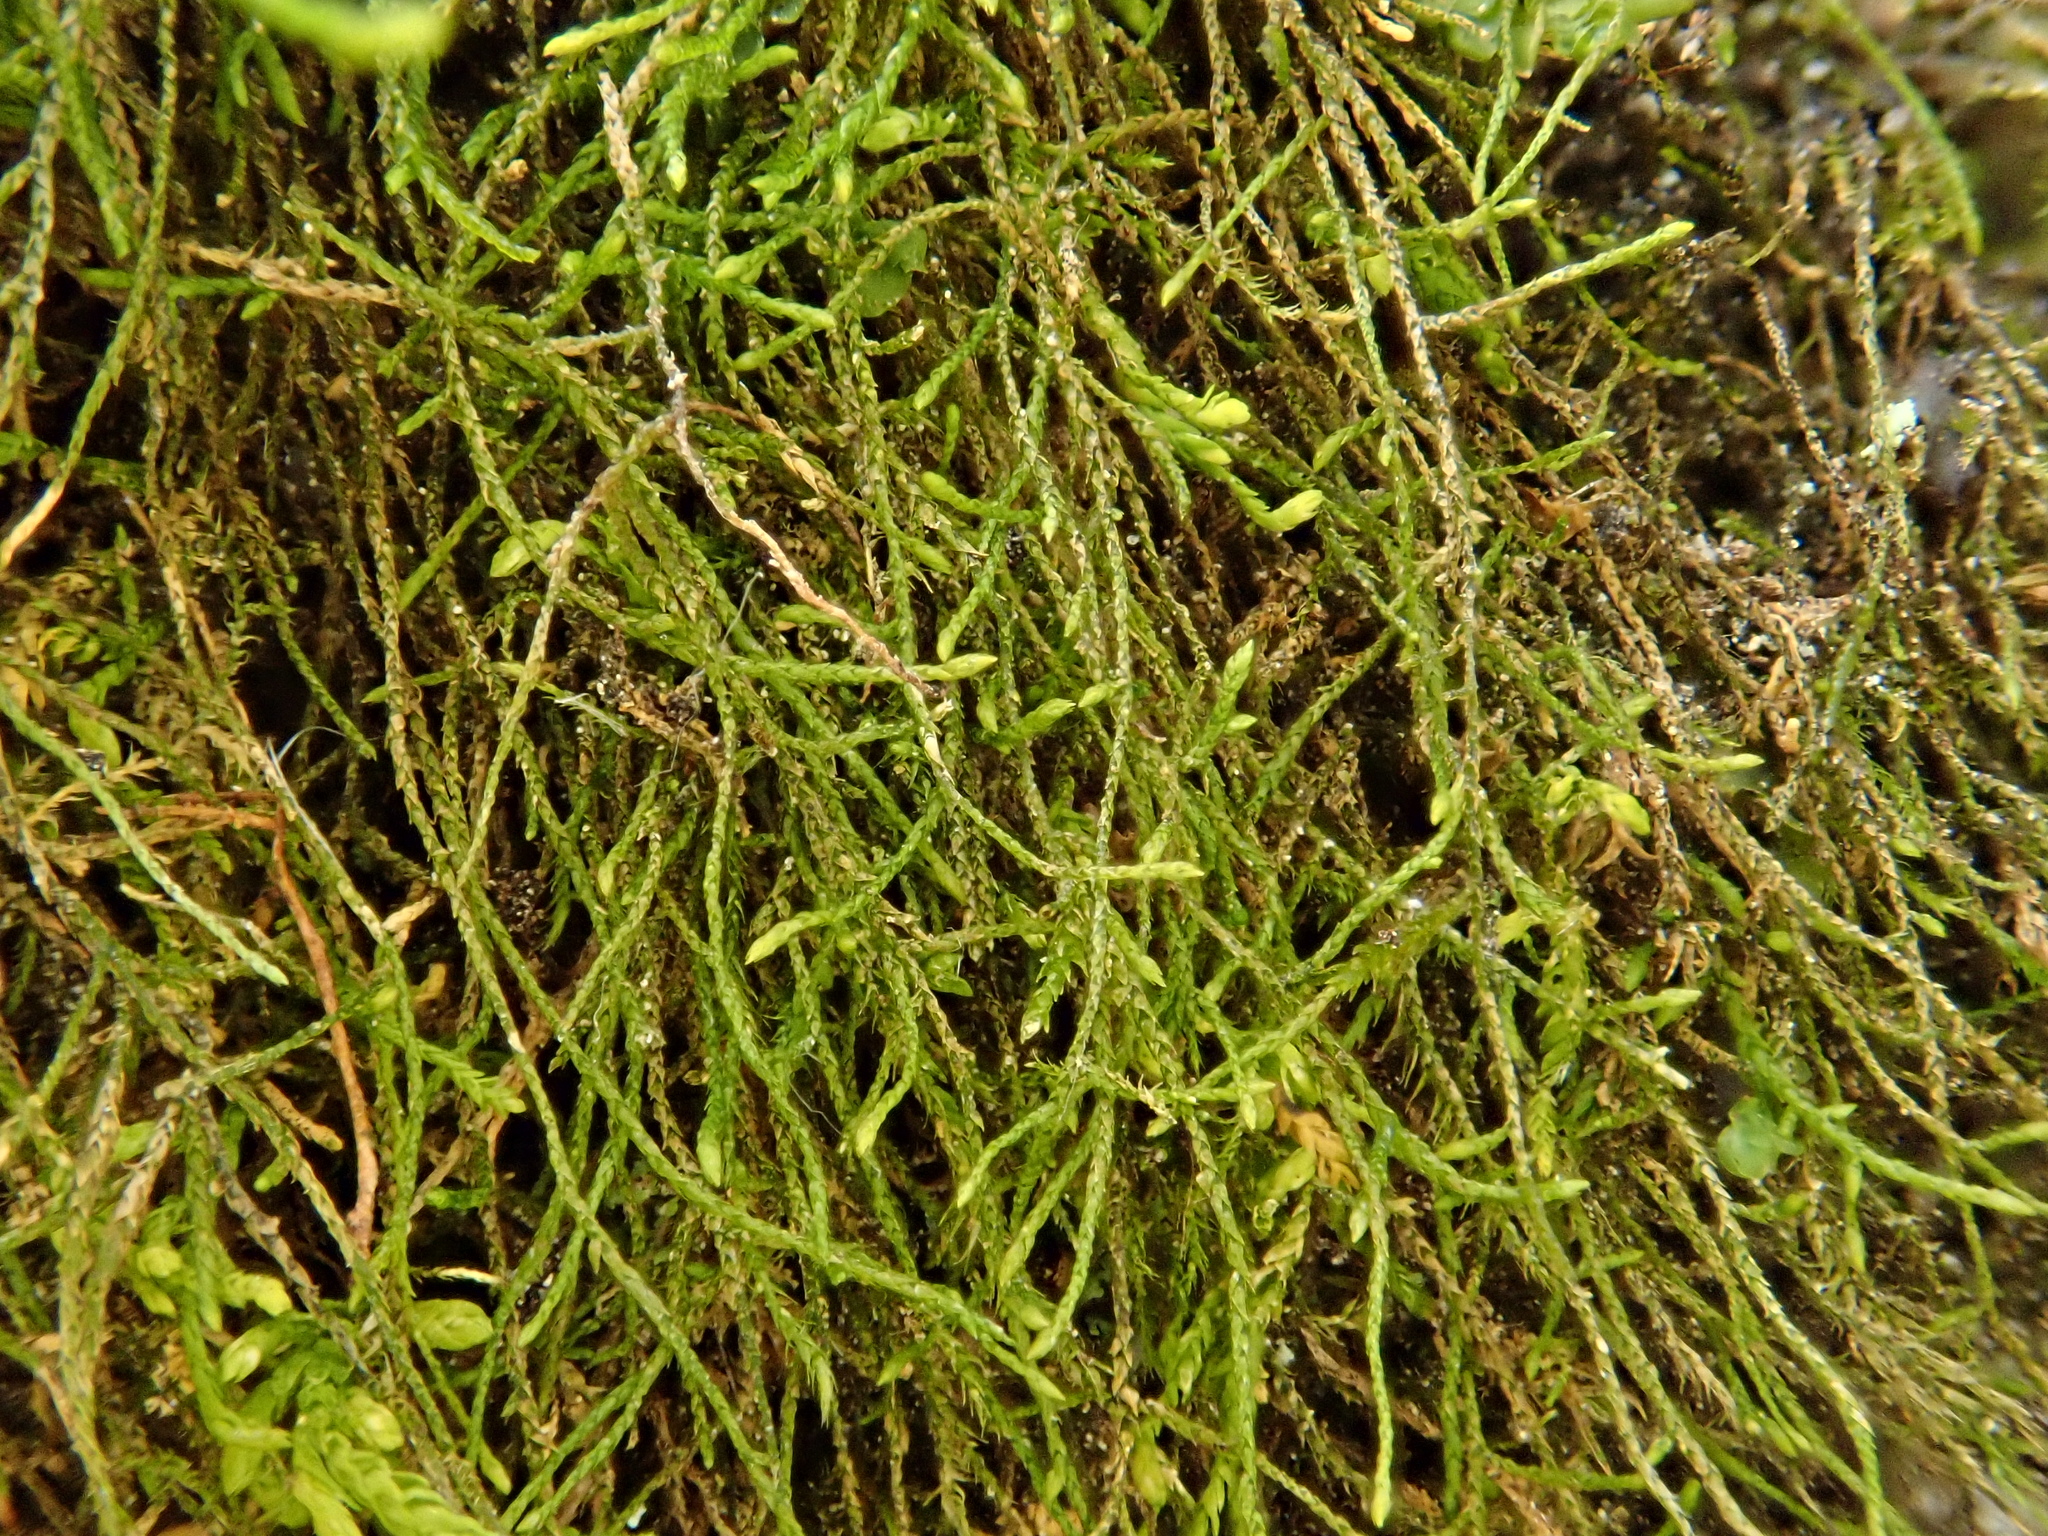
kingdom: Plantae
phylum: Bryophyta
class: Bryopsida
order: Hypnales
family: Pseudoleskeellaceae
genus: Pseudoleskeella
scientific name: Pseudoleskeella catenulata
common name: Chained leskea
